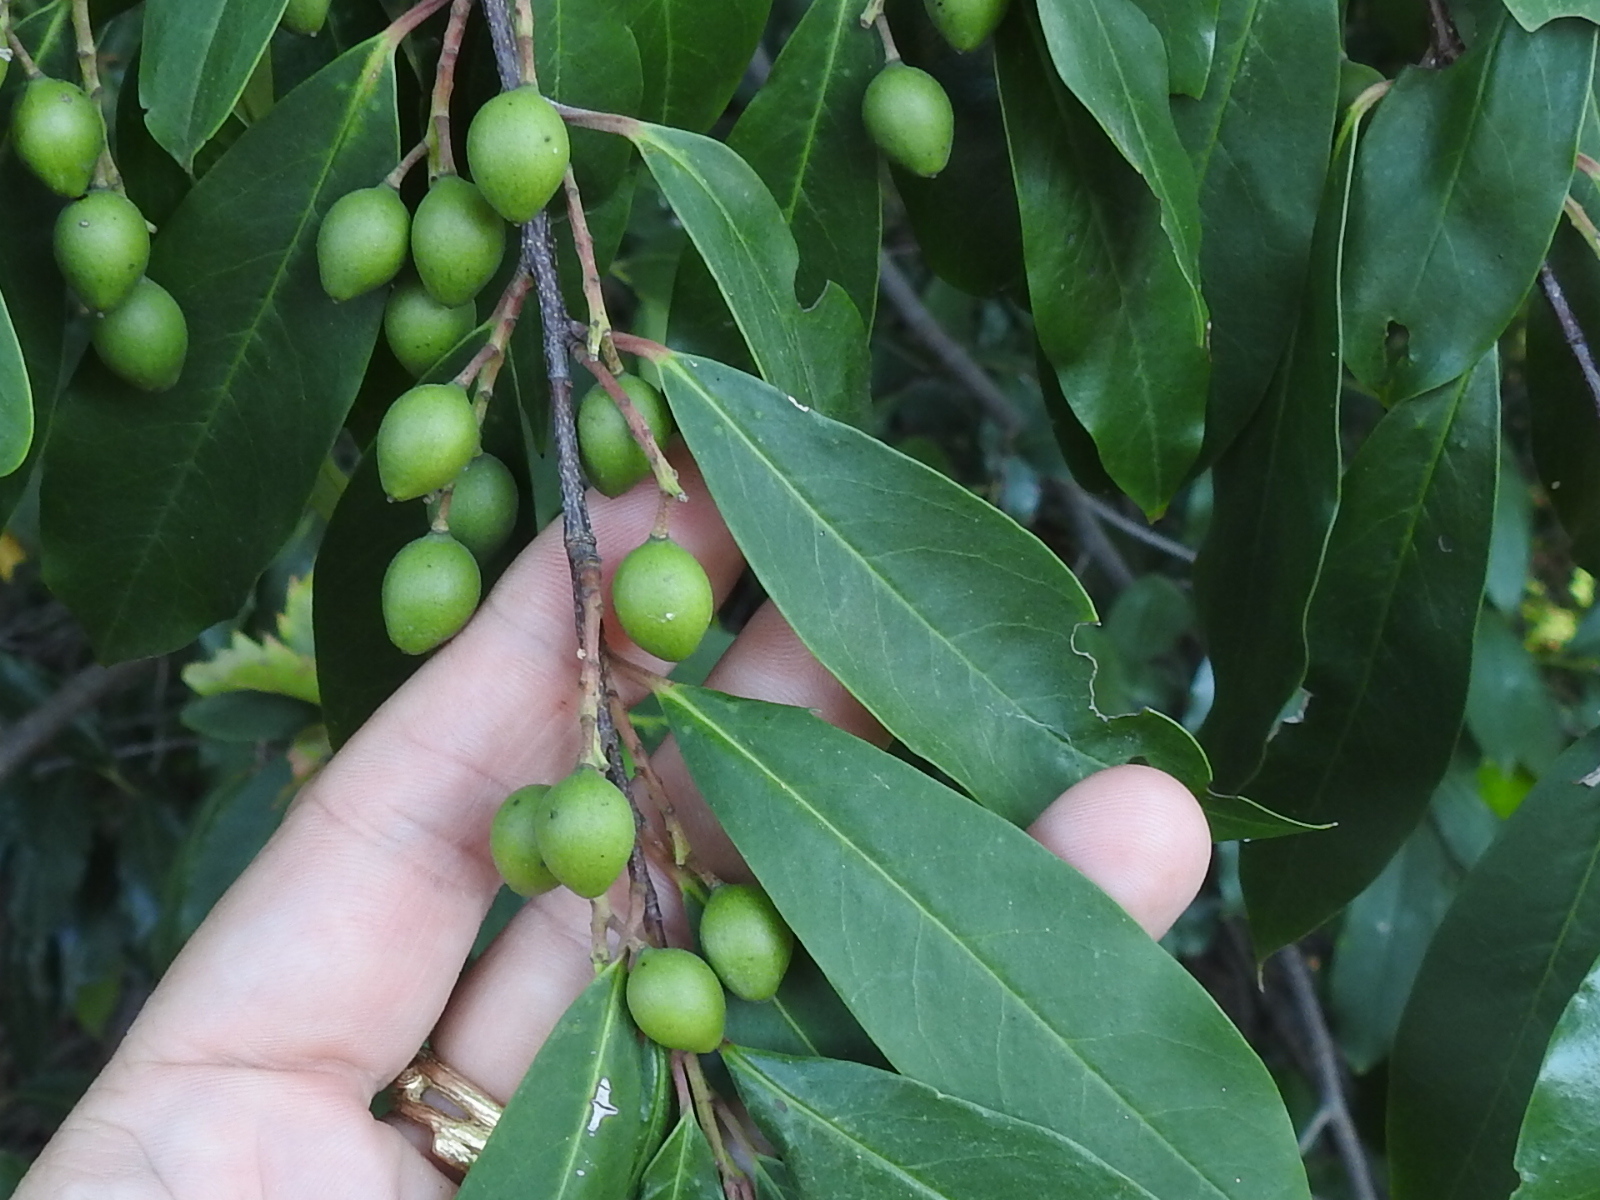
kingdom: Plantae
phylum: Tracheophyta
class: Magnoliopsida
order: Rosales
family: Rosaceae
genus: Prunus
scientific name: Prunus caroliniana
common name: Carolina laurel cherry
